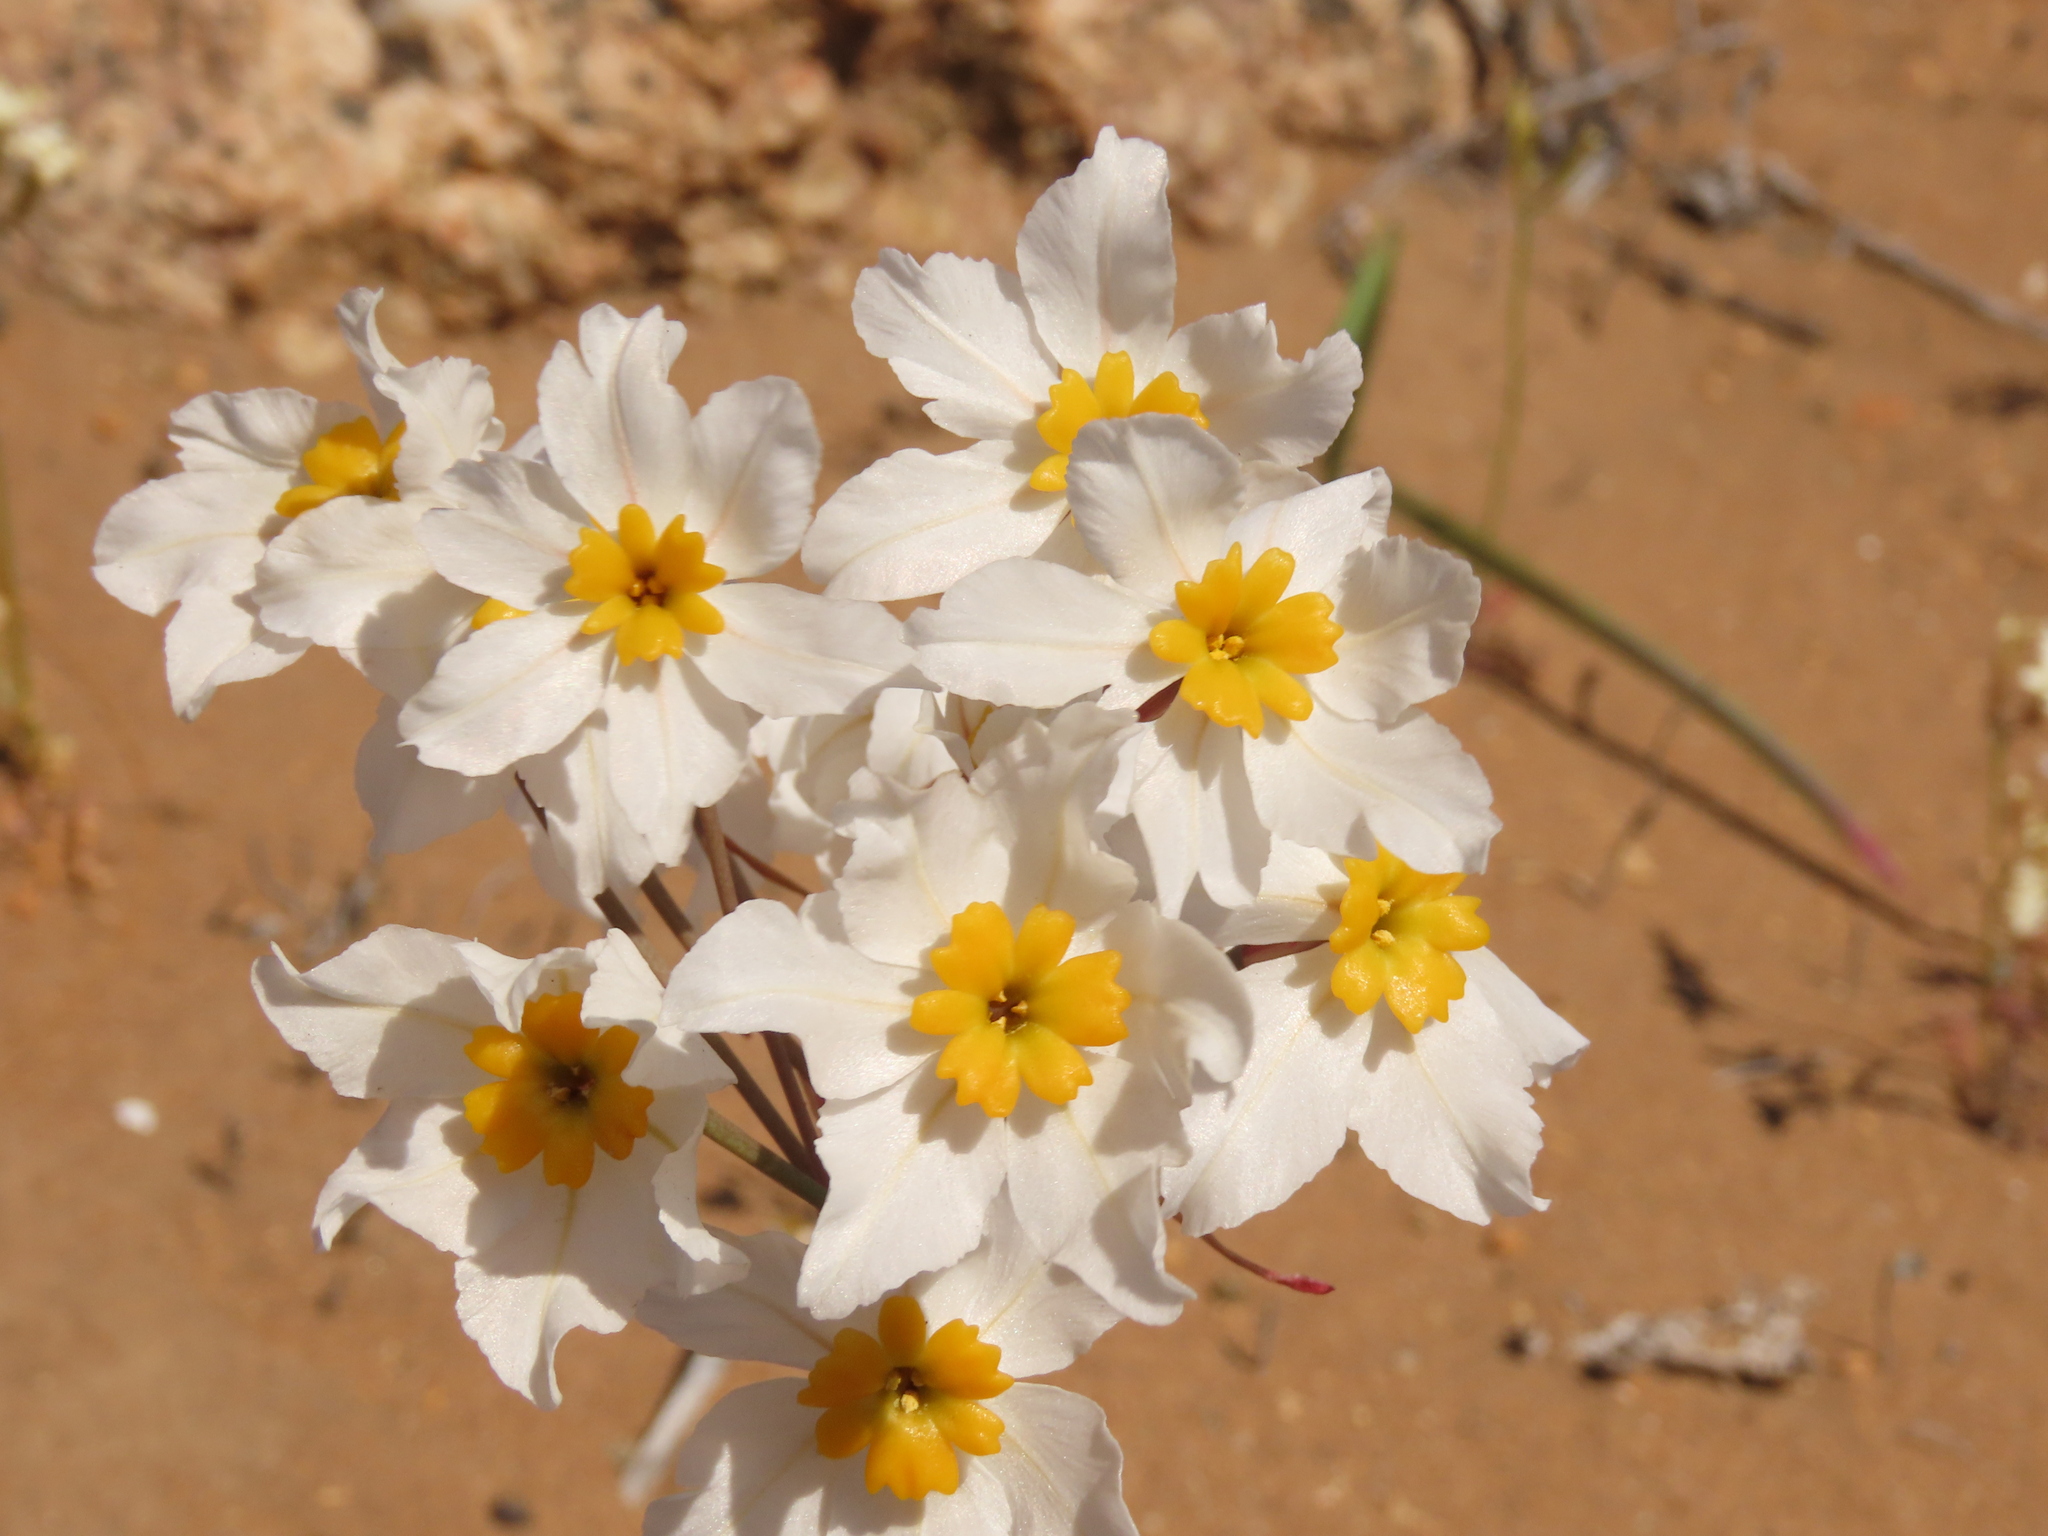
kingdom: Plantae
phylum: Tracheophyta
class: Liliopsida
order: Asparagales
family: Amaryllidaceae
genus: Leucocoryne
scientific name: Leucocoryne coronata
